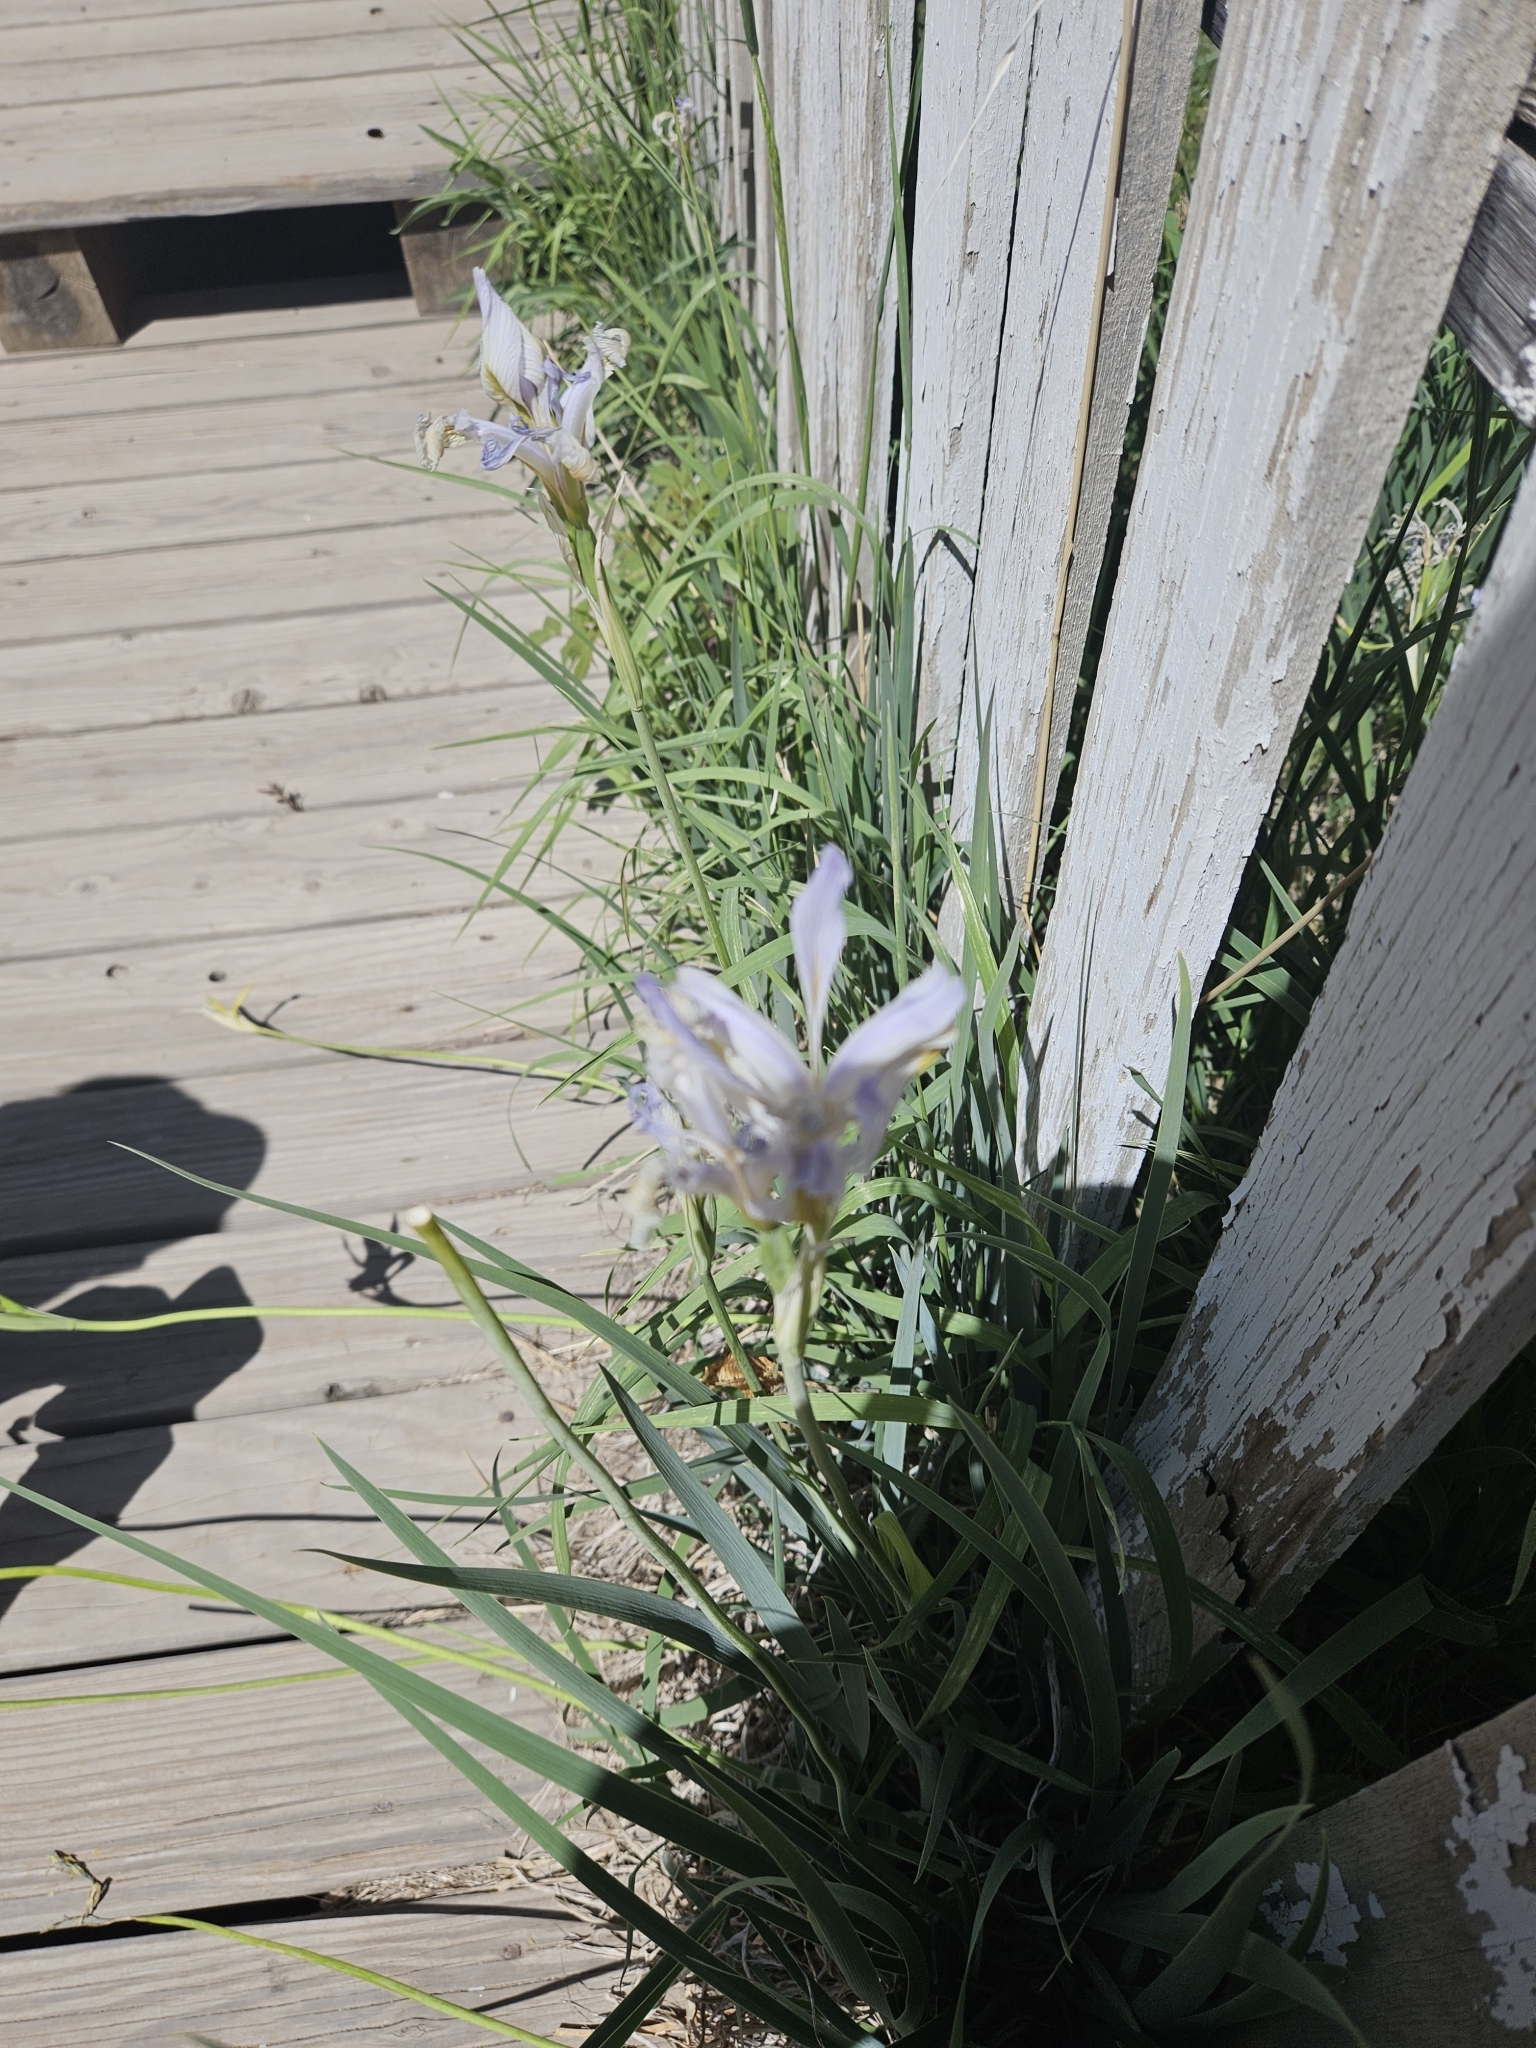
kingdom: Plantae
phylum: Tracheophyta
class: Liliopsida
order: Asparagales
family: Iridaceae
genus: Iris
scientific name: Iris missouriensis
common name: Rocky mountain iris
